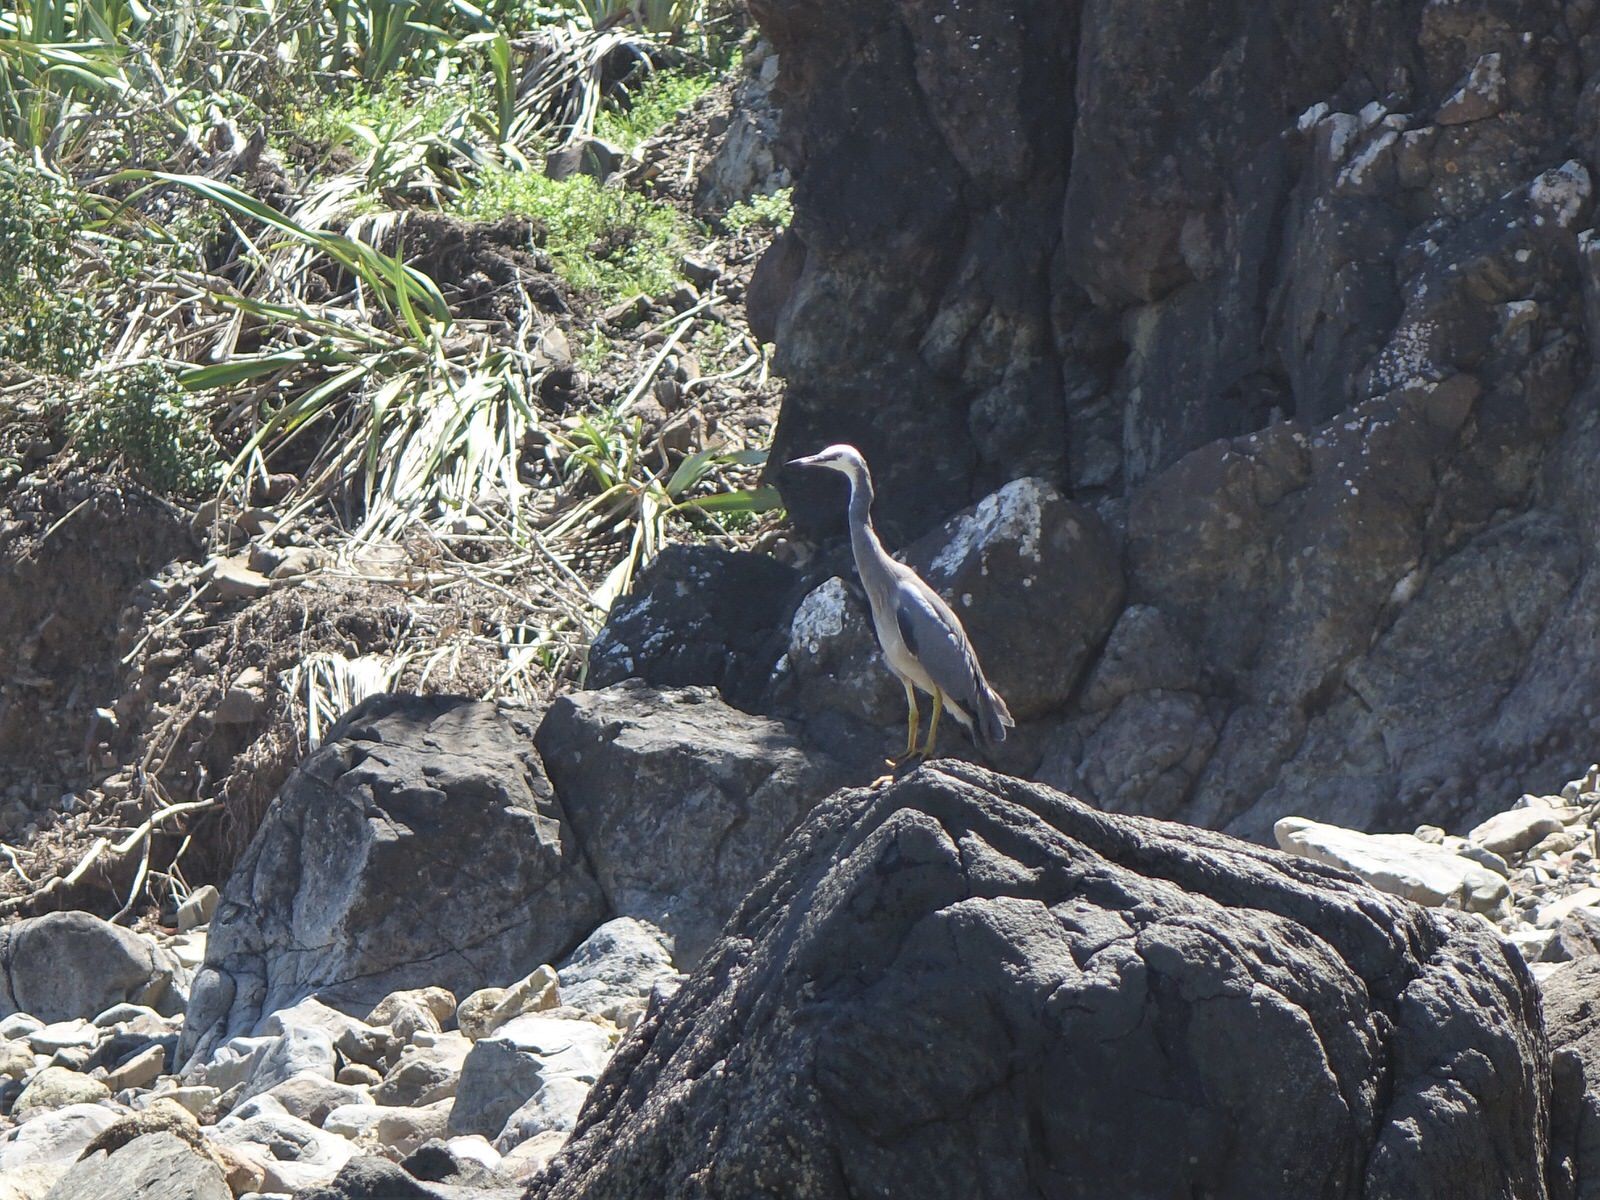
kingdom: Animalia
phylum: Chordata
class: Aves
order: Pelecaniformes
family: Ardeidae
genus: Egretta
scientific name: Egretta novaehollandiae
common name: White-faced heron
